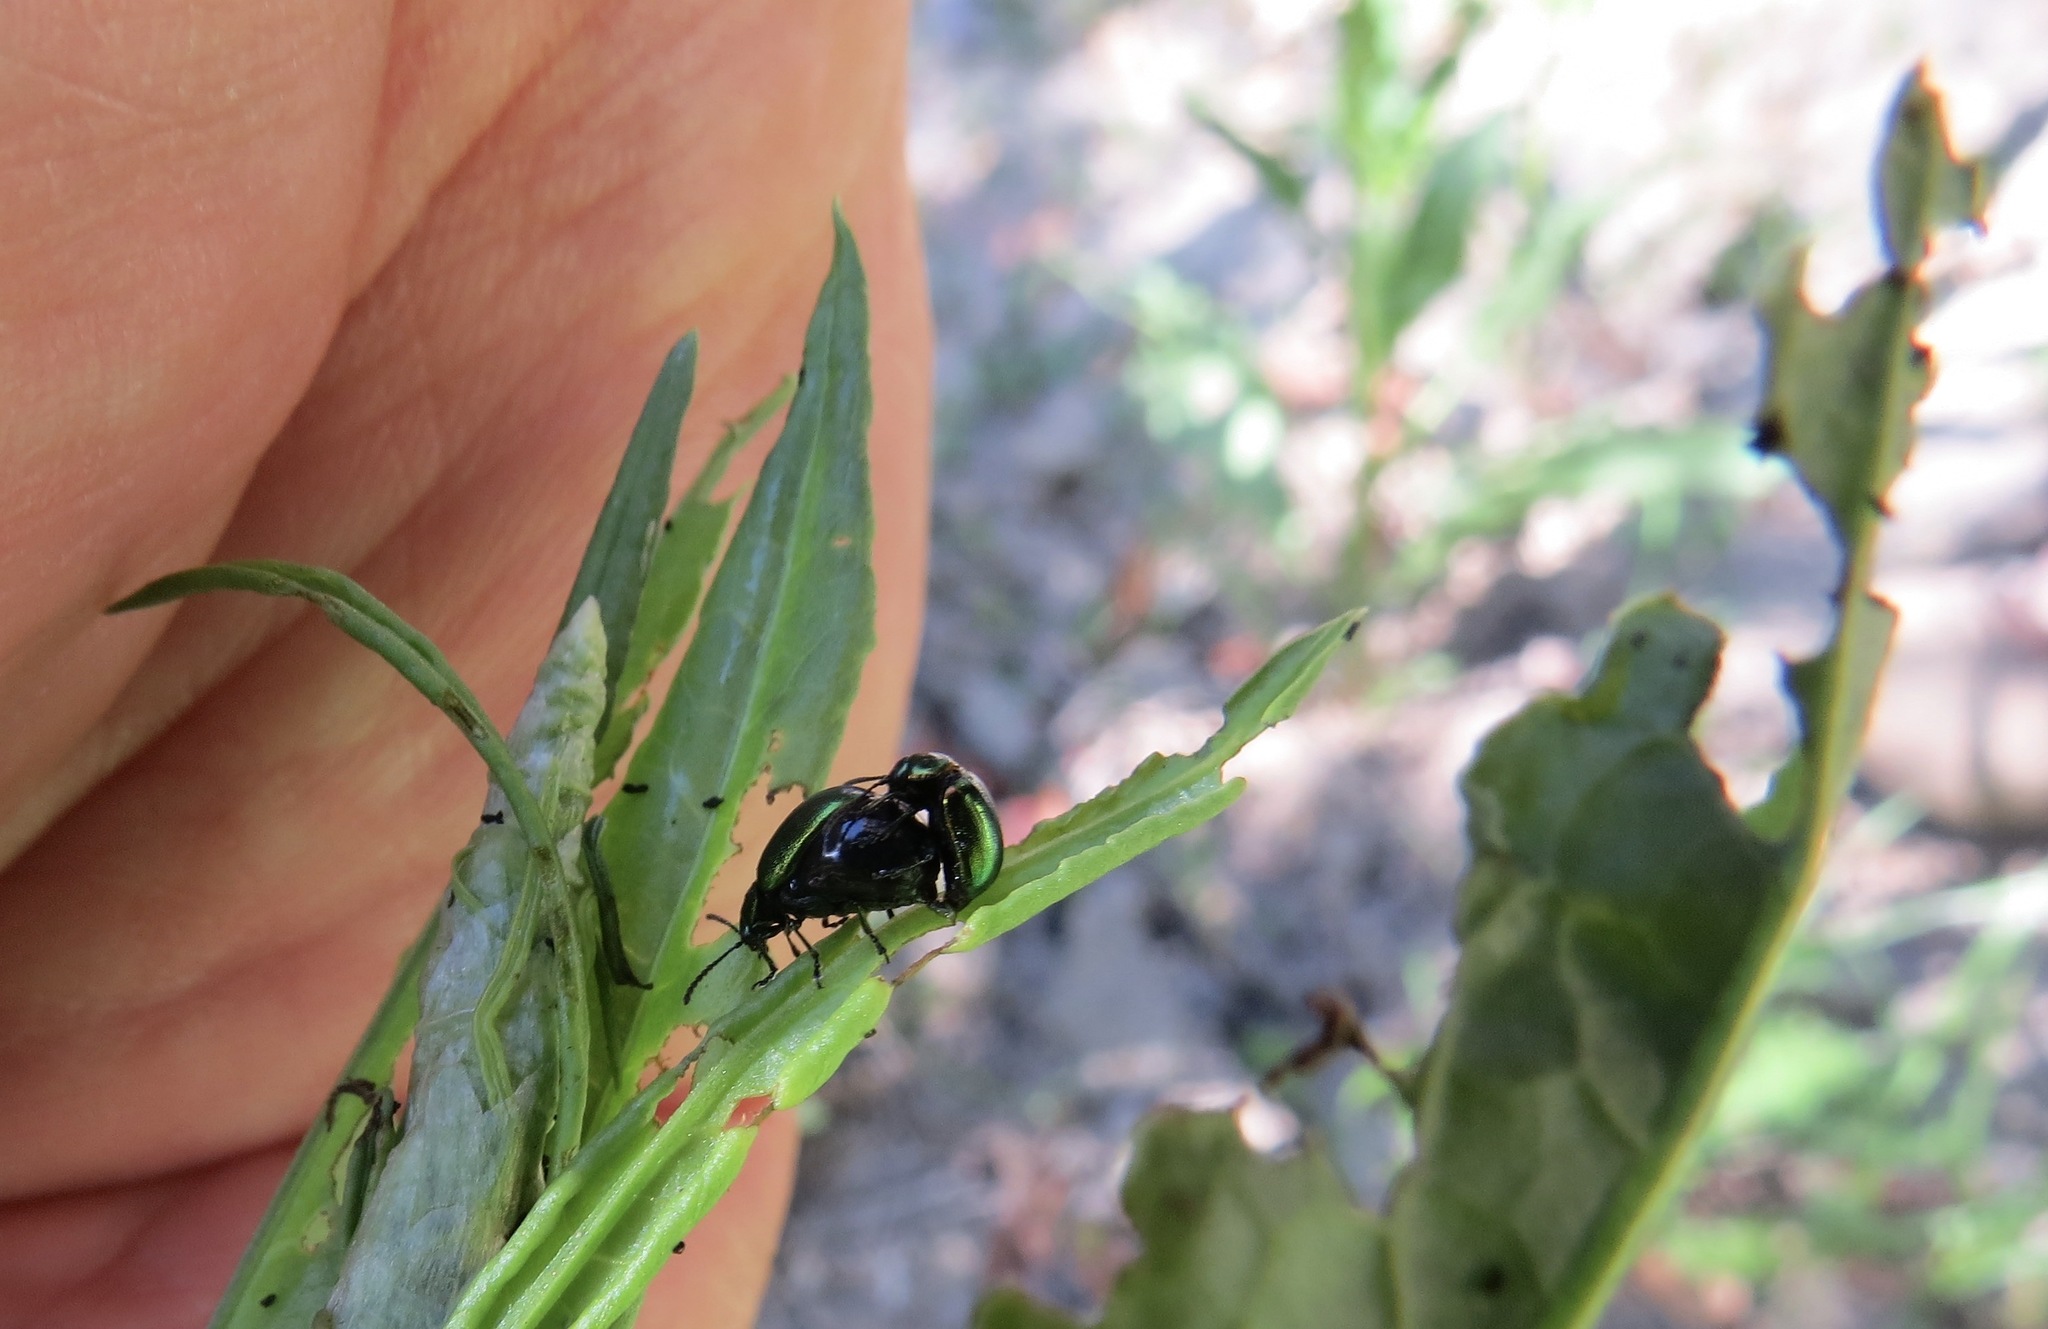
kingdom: Animalia
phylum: Arthropoda
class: Insecta
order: Coleoptera
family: Chrysomelidae
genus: Gastrophysa
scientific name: Gastrophysa cyanea
